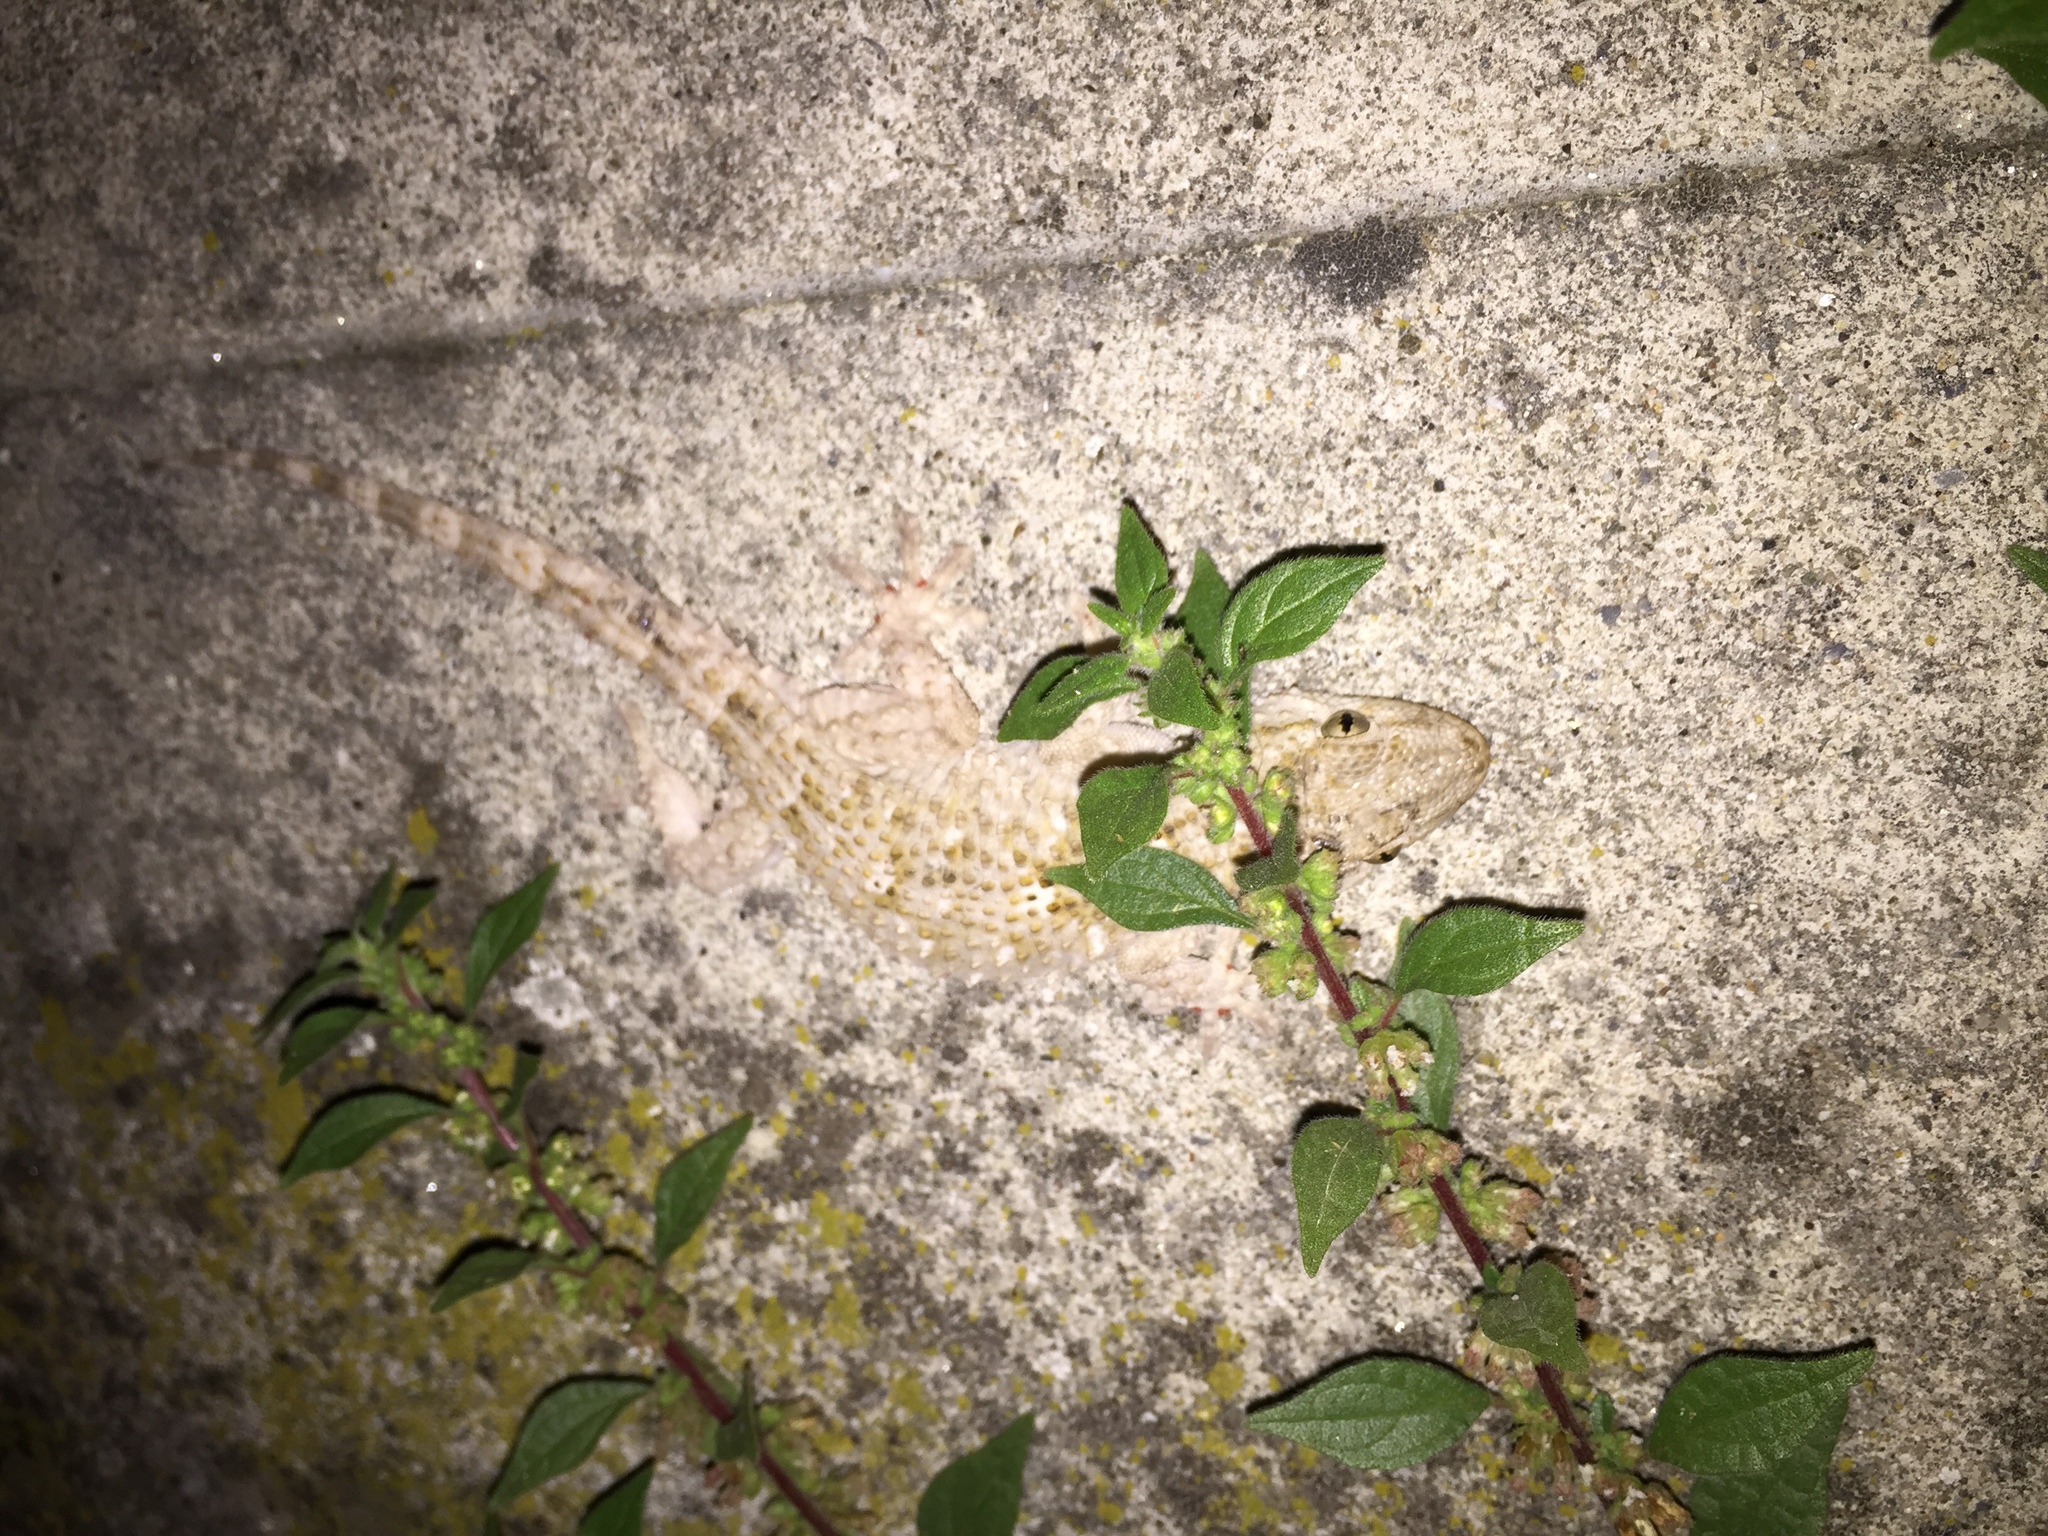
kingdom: Animalia
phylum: Chordata
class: Squamata
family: Phyllodactylidae
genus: Tarentola
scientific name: Tarentola mauritanica
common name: Moorish gecko
